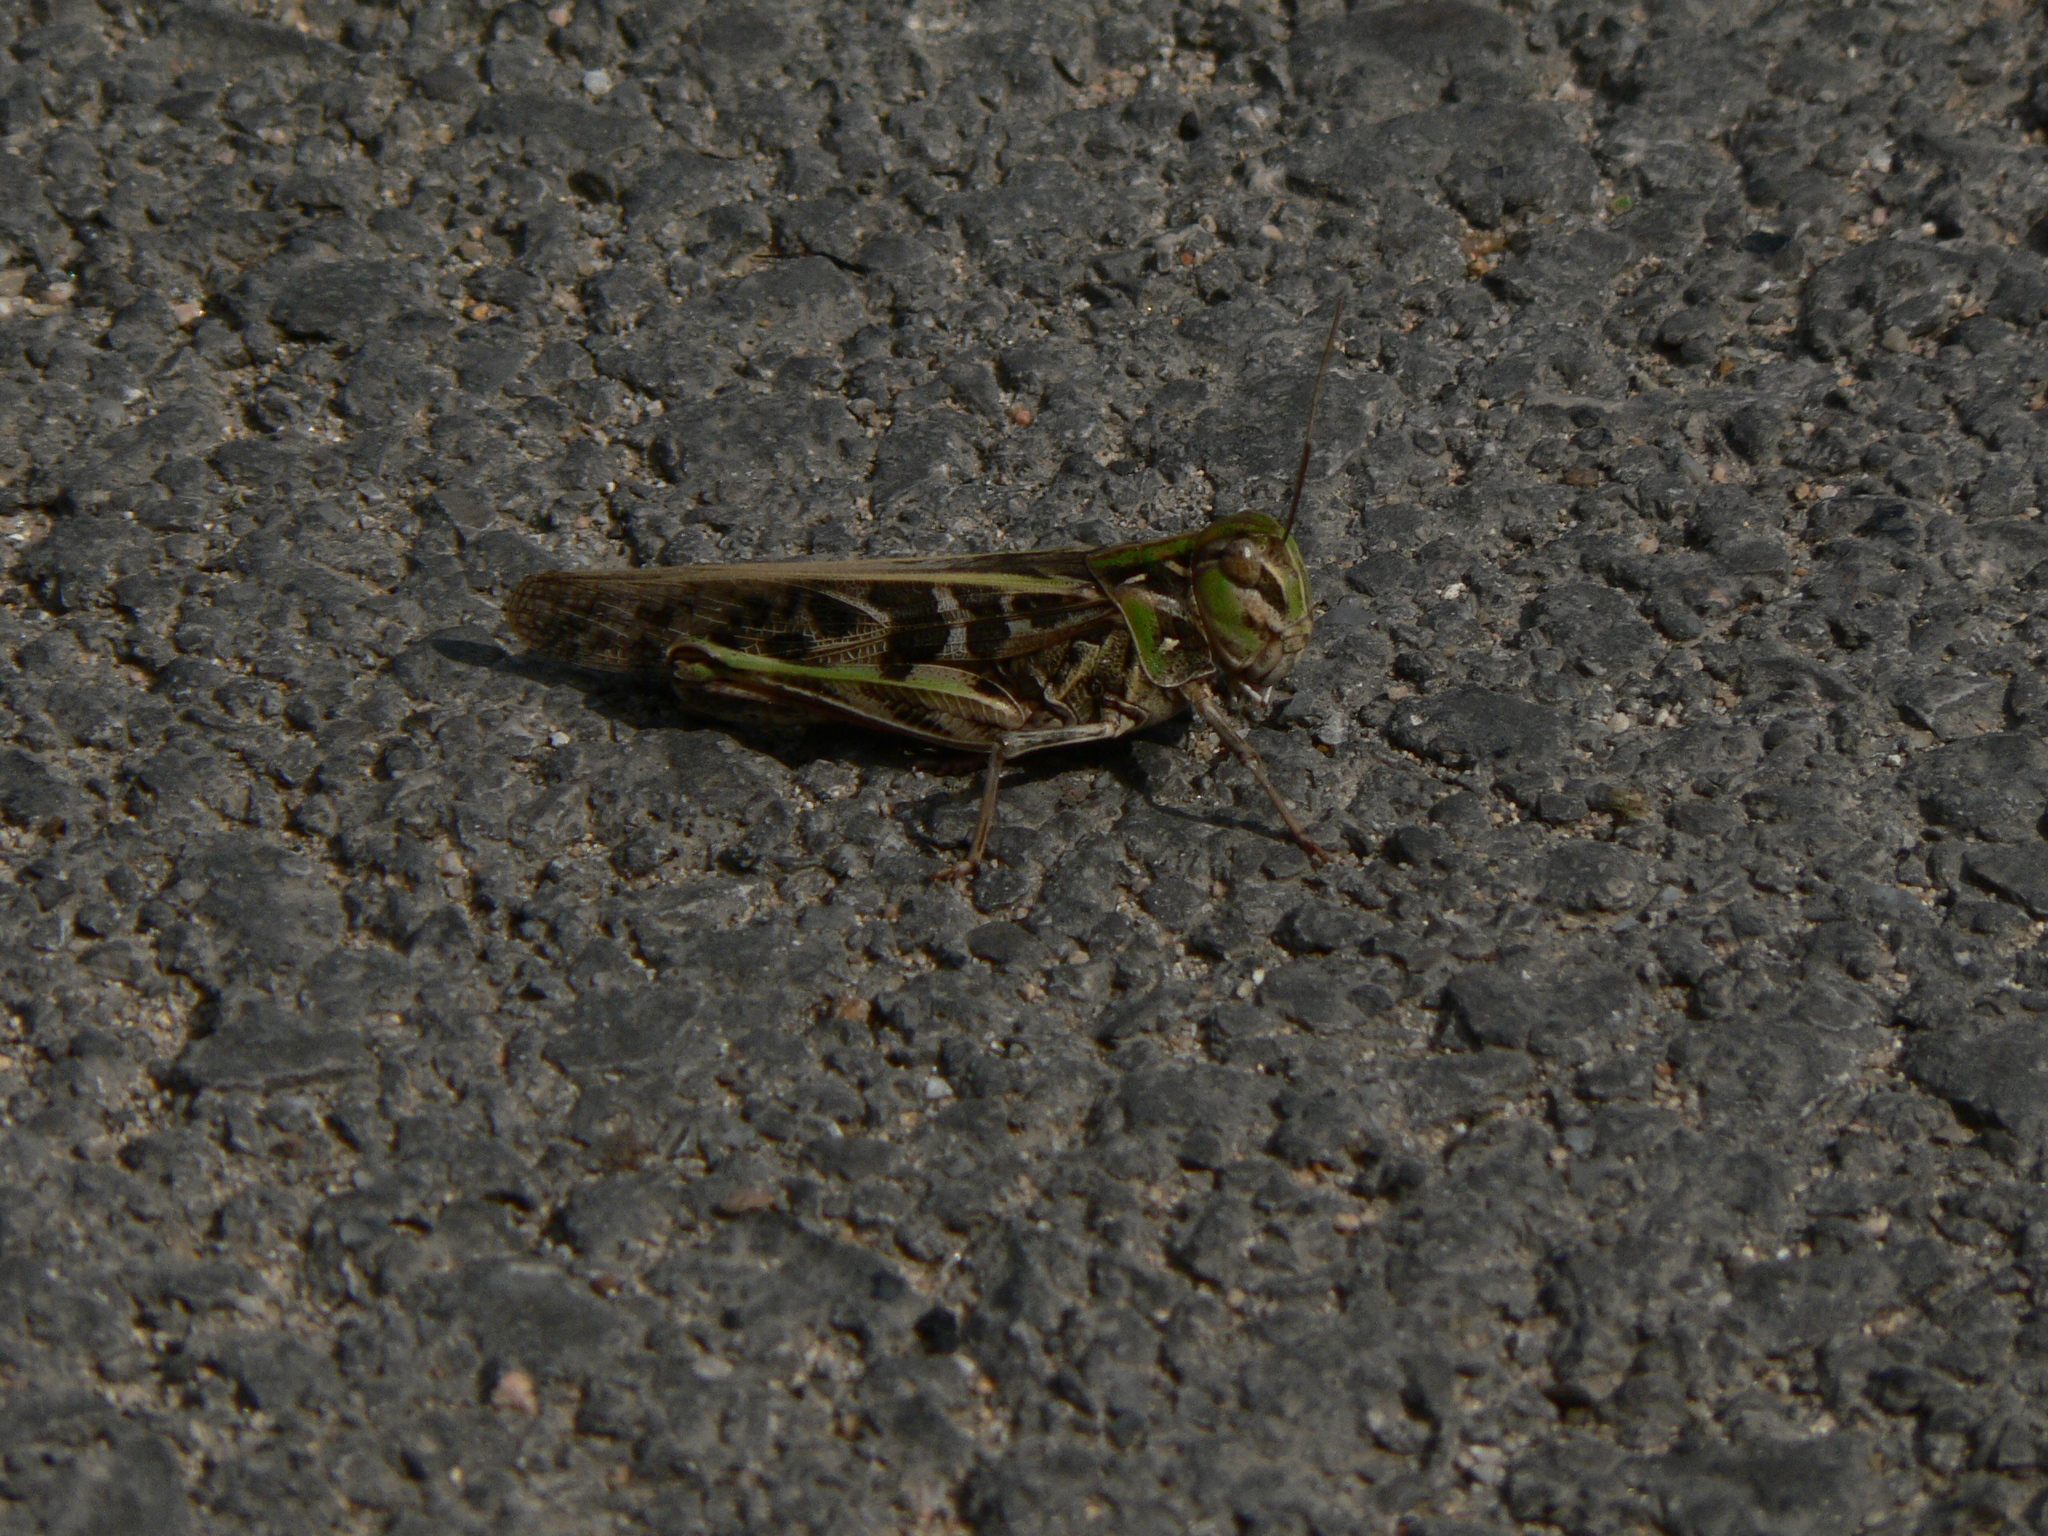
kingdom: Animalia
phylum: Arthropoda
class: Insecta
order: Orthoptera
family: Acrididae
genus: Oedaleus
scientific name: Oedaleus decorus
